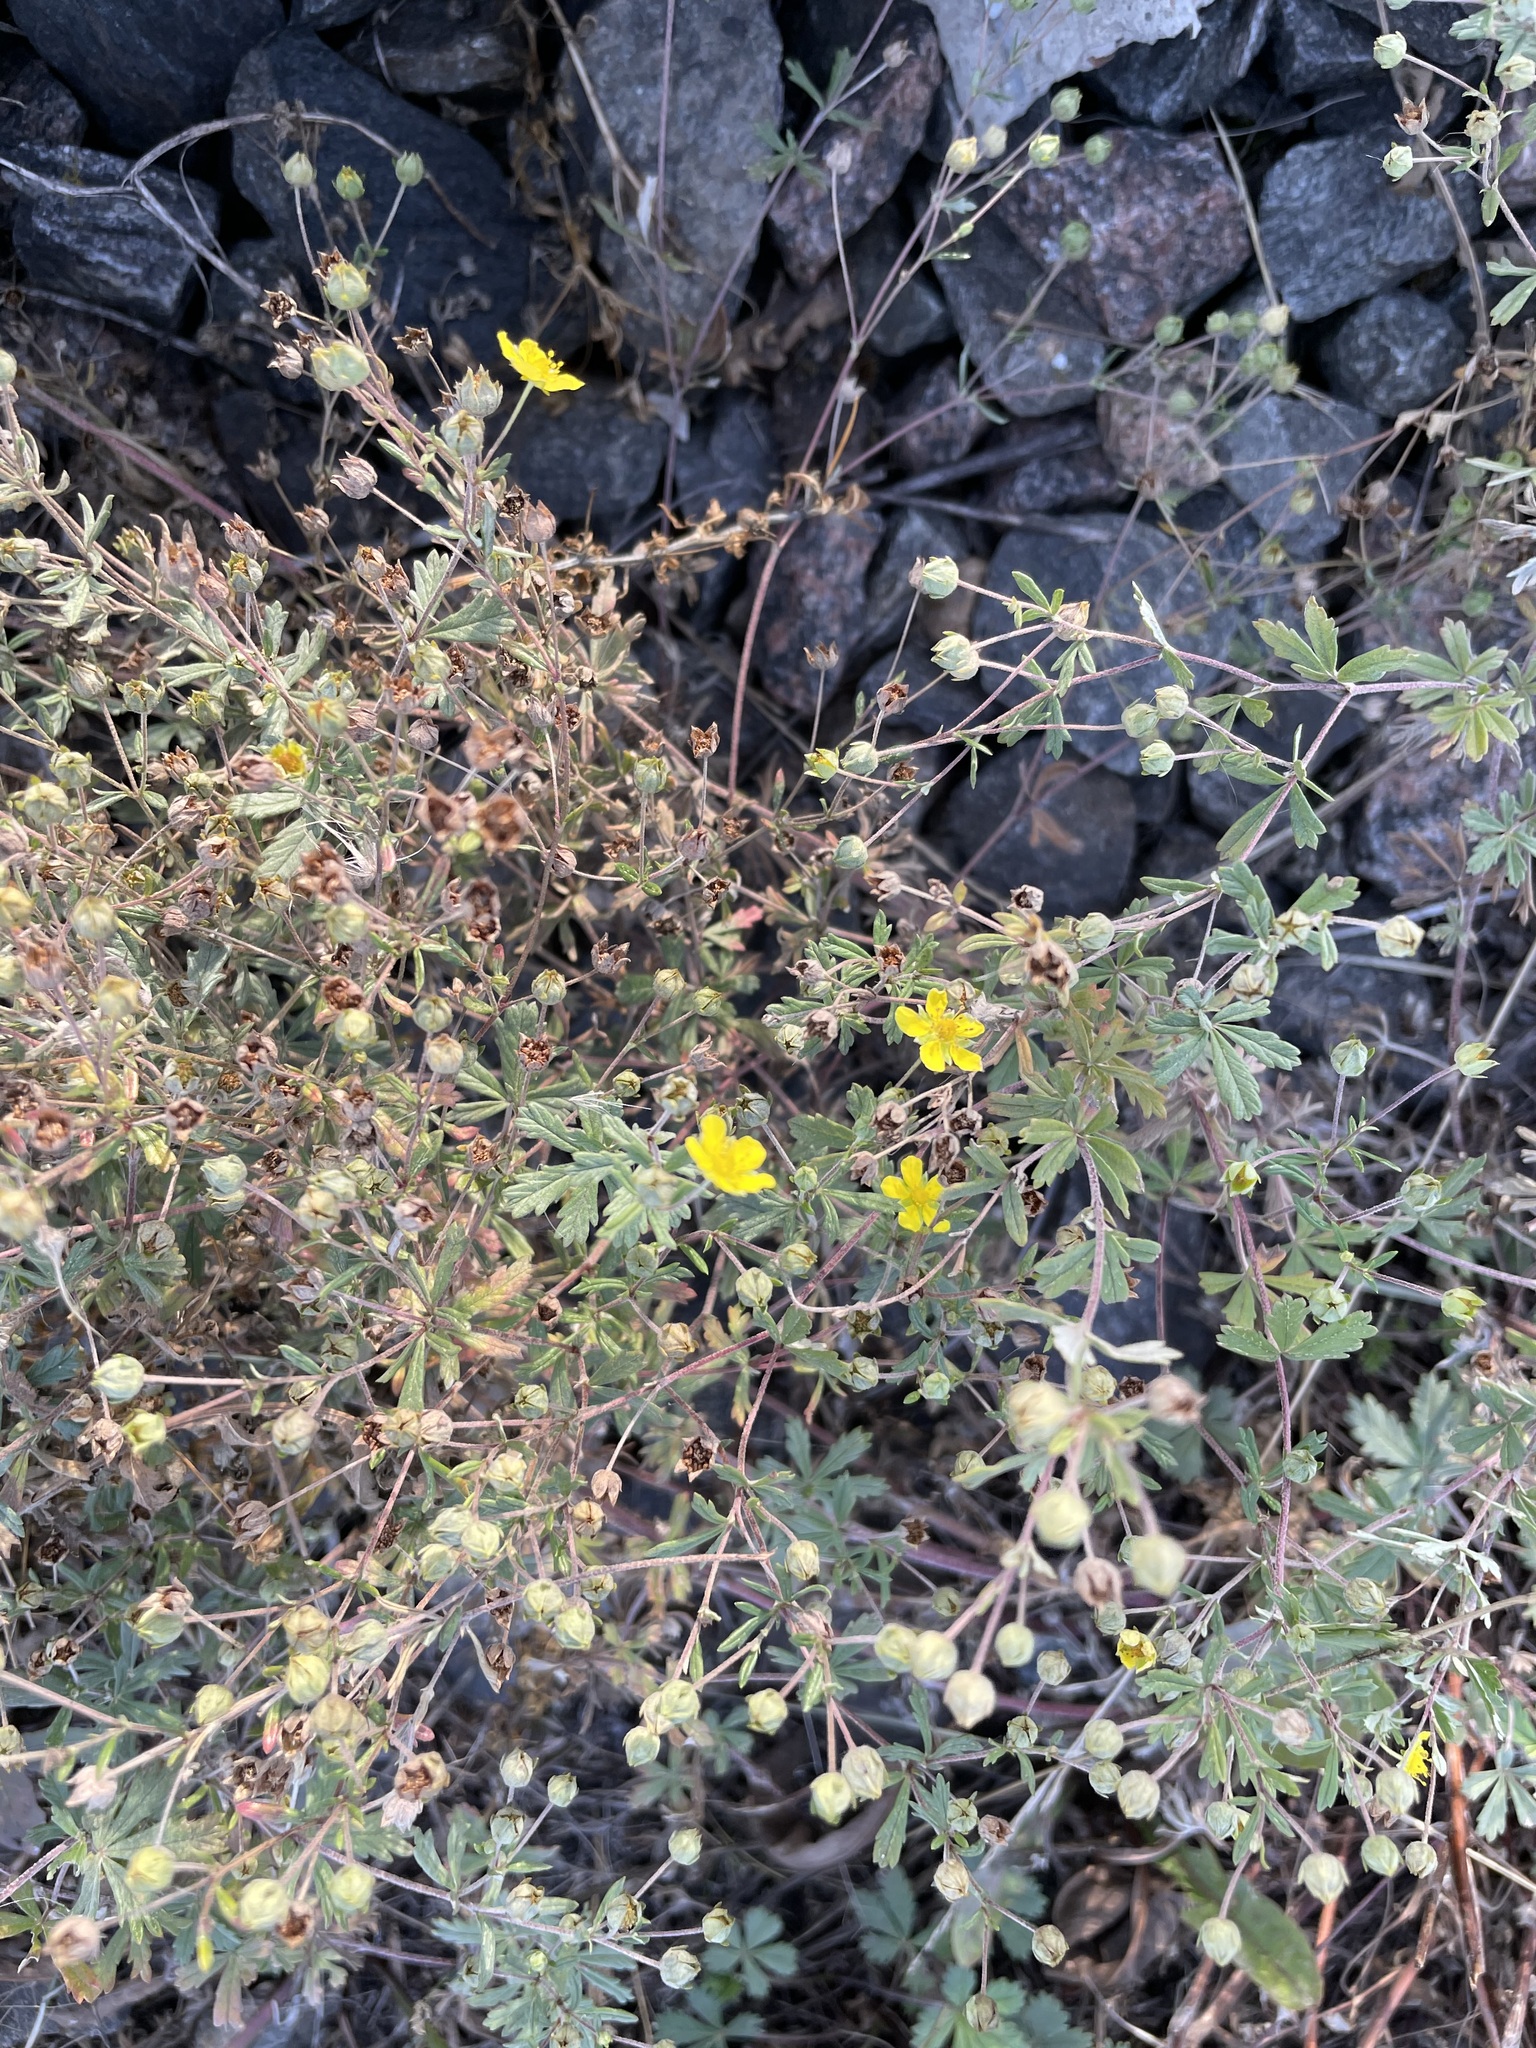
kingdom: Plantae
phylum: Tracheophyta
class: Magnoliopsida
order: Rosales
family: Rosaceae
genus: Potentilla
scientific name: Potentilla argentea
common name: Hoary cinquefoil
